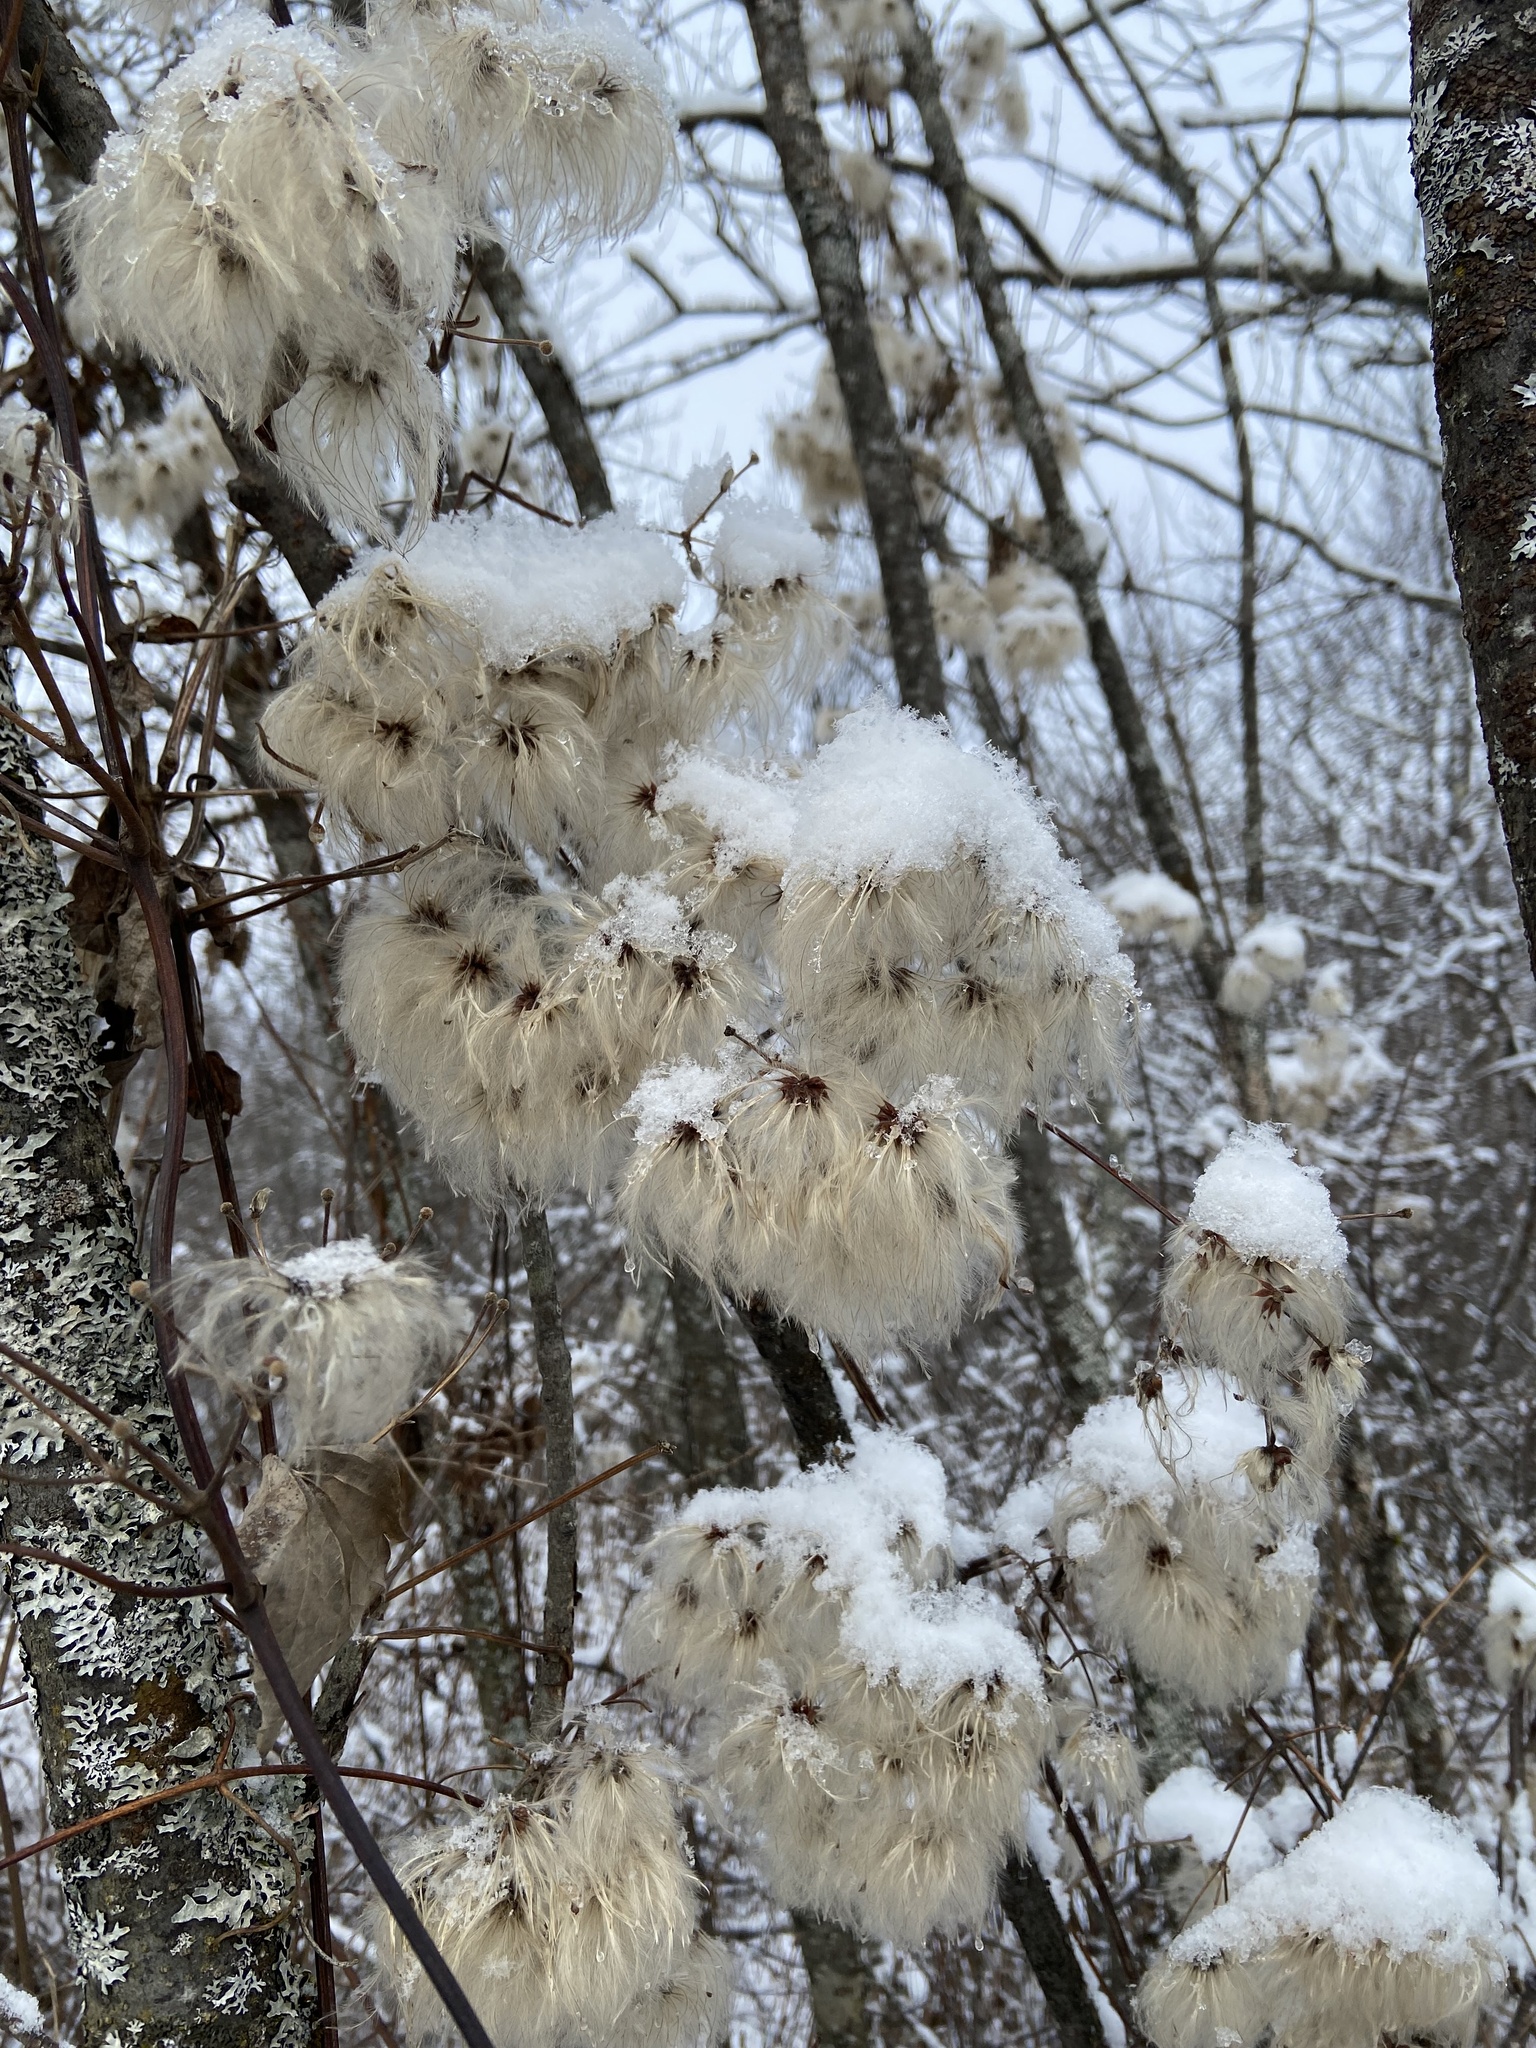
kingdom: Plantae
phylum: Tracheophyta
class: Magnoliopsida
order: Ranunculales
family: Ranunculaceae
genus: Clematis
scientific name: Clematis virginiana
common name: Virgin's-bower
